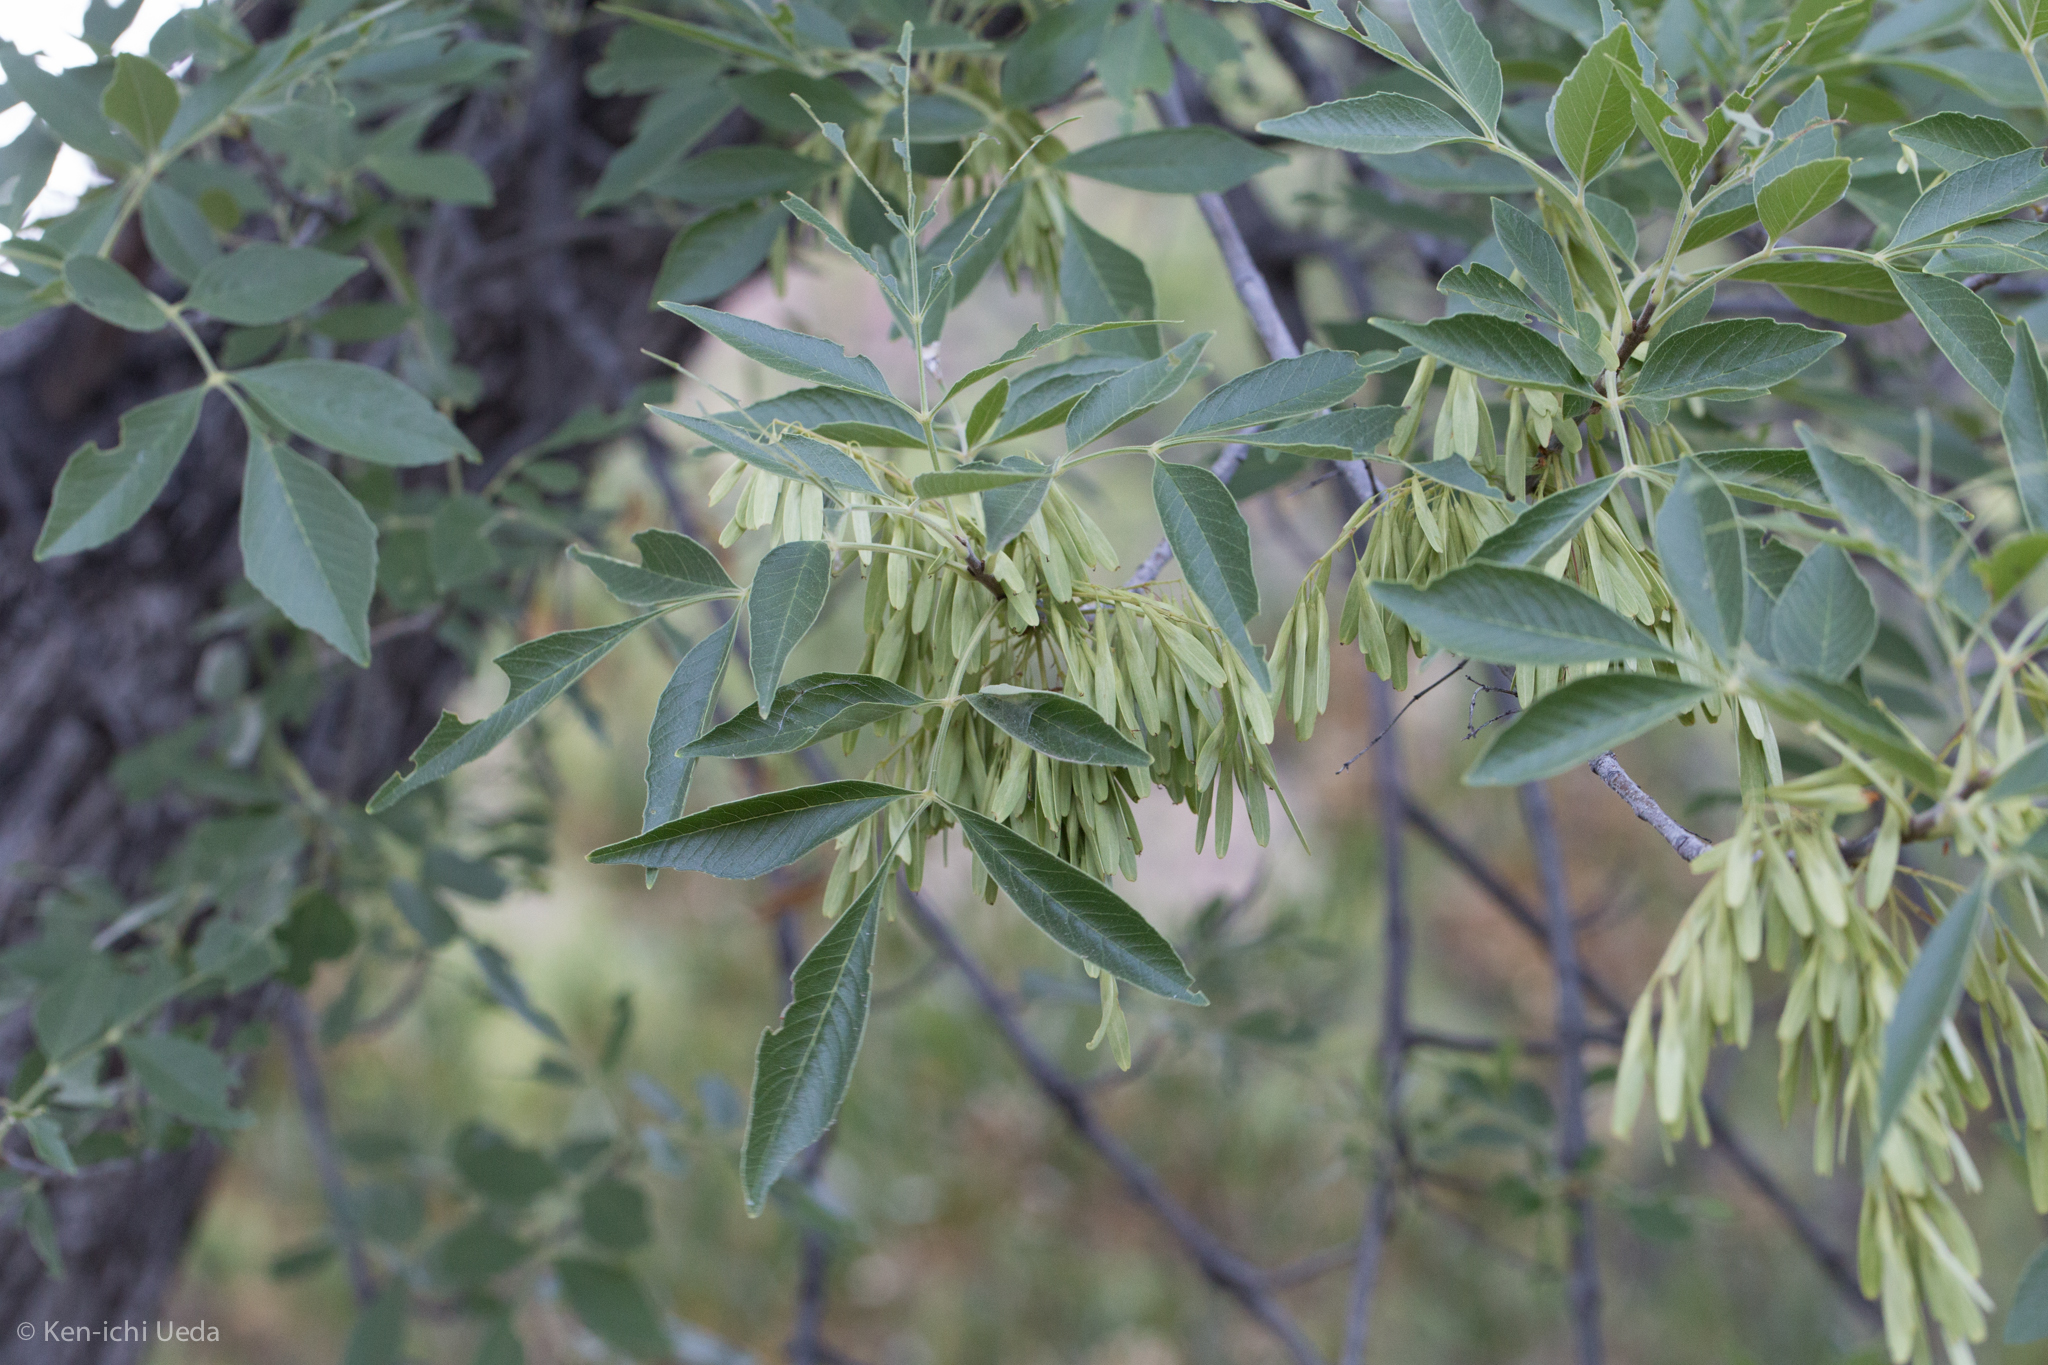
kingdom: Plantae
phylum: Tracheophyta
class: Magnoliopsida
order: Lamiales
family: Oleaceae
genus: Fraxinus
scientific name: Fraxinus velutina
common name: Arizon ash
